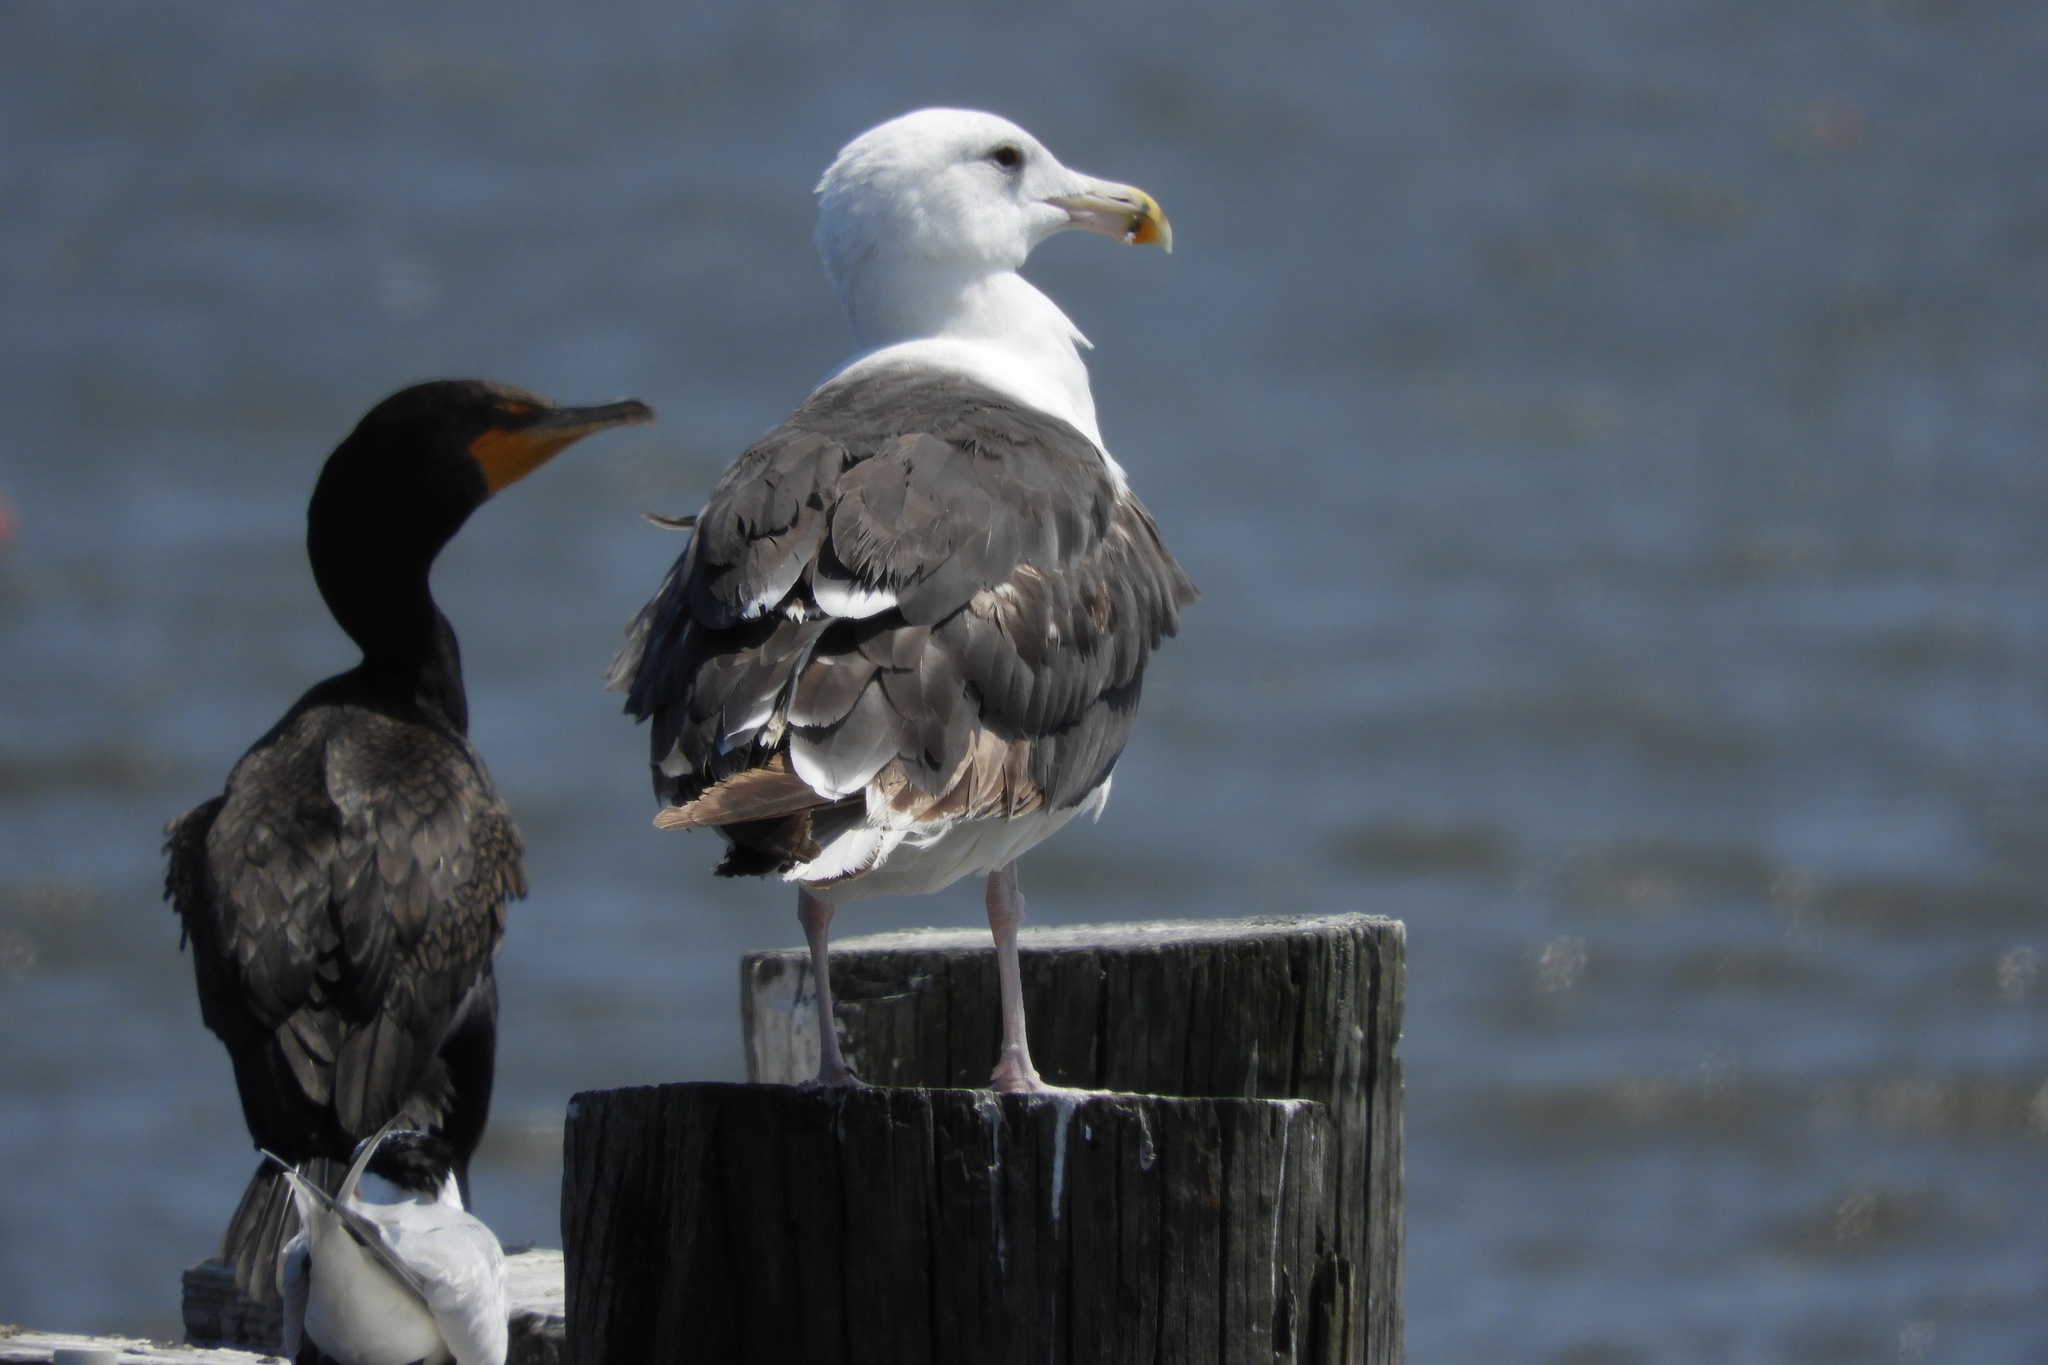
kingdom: Animalia
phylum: Chordata
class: Aves
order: Charadriiformes
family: Laridae
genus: Larus
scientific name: Larus marinus
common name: Great black-backed gull
